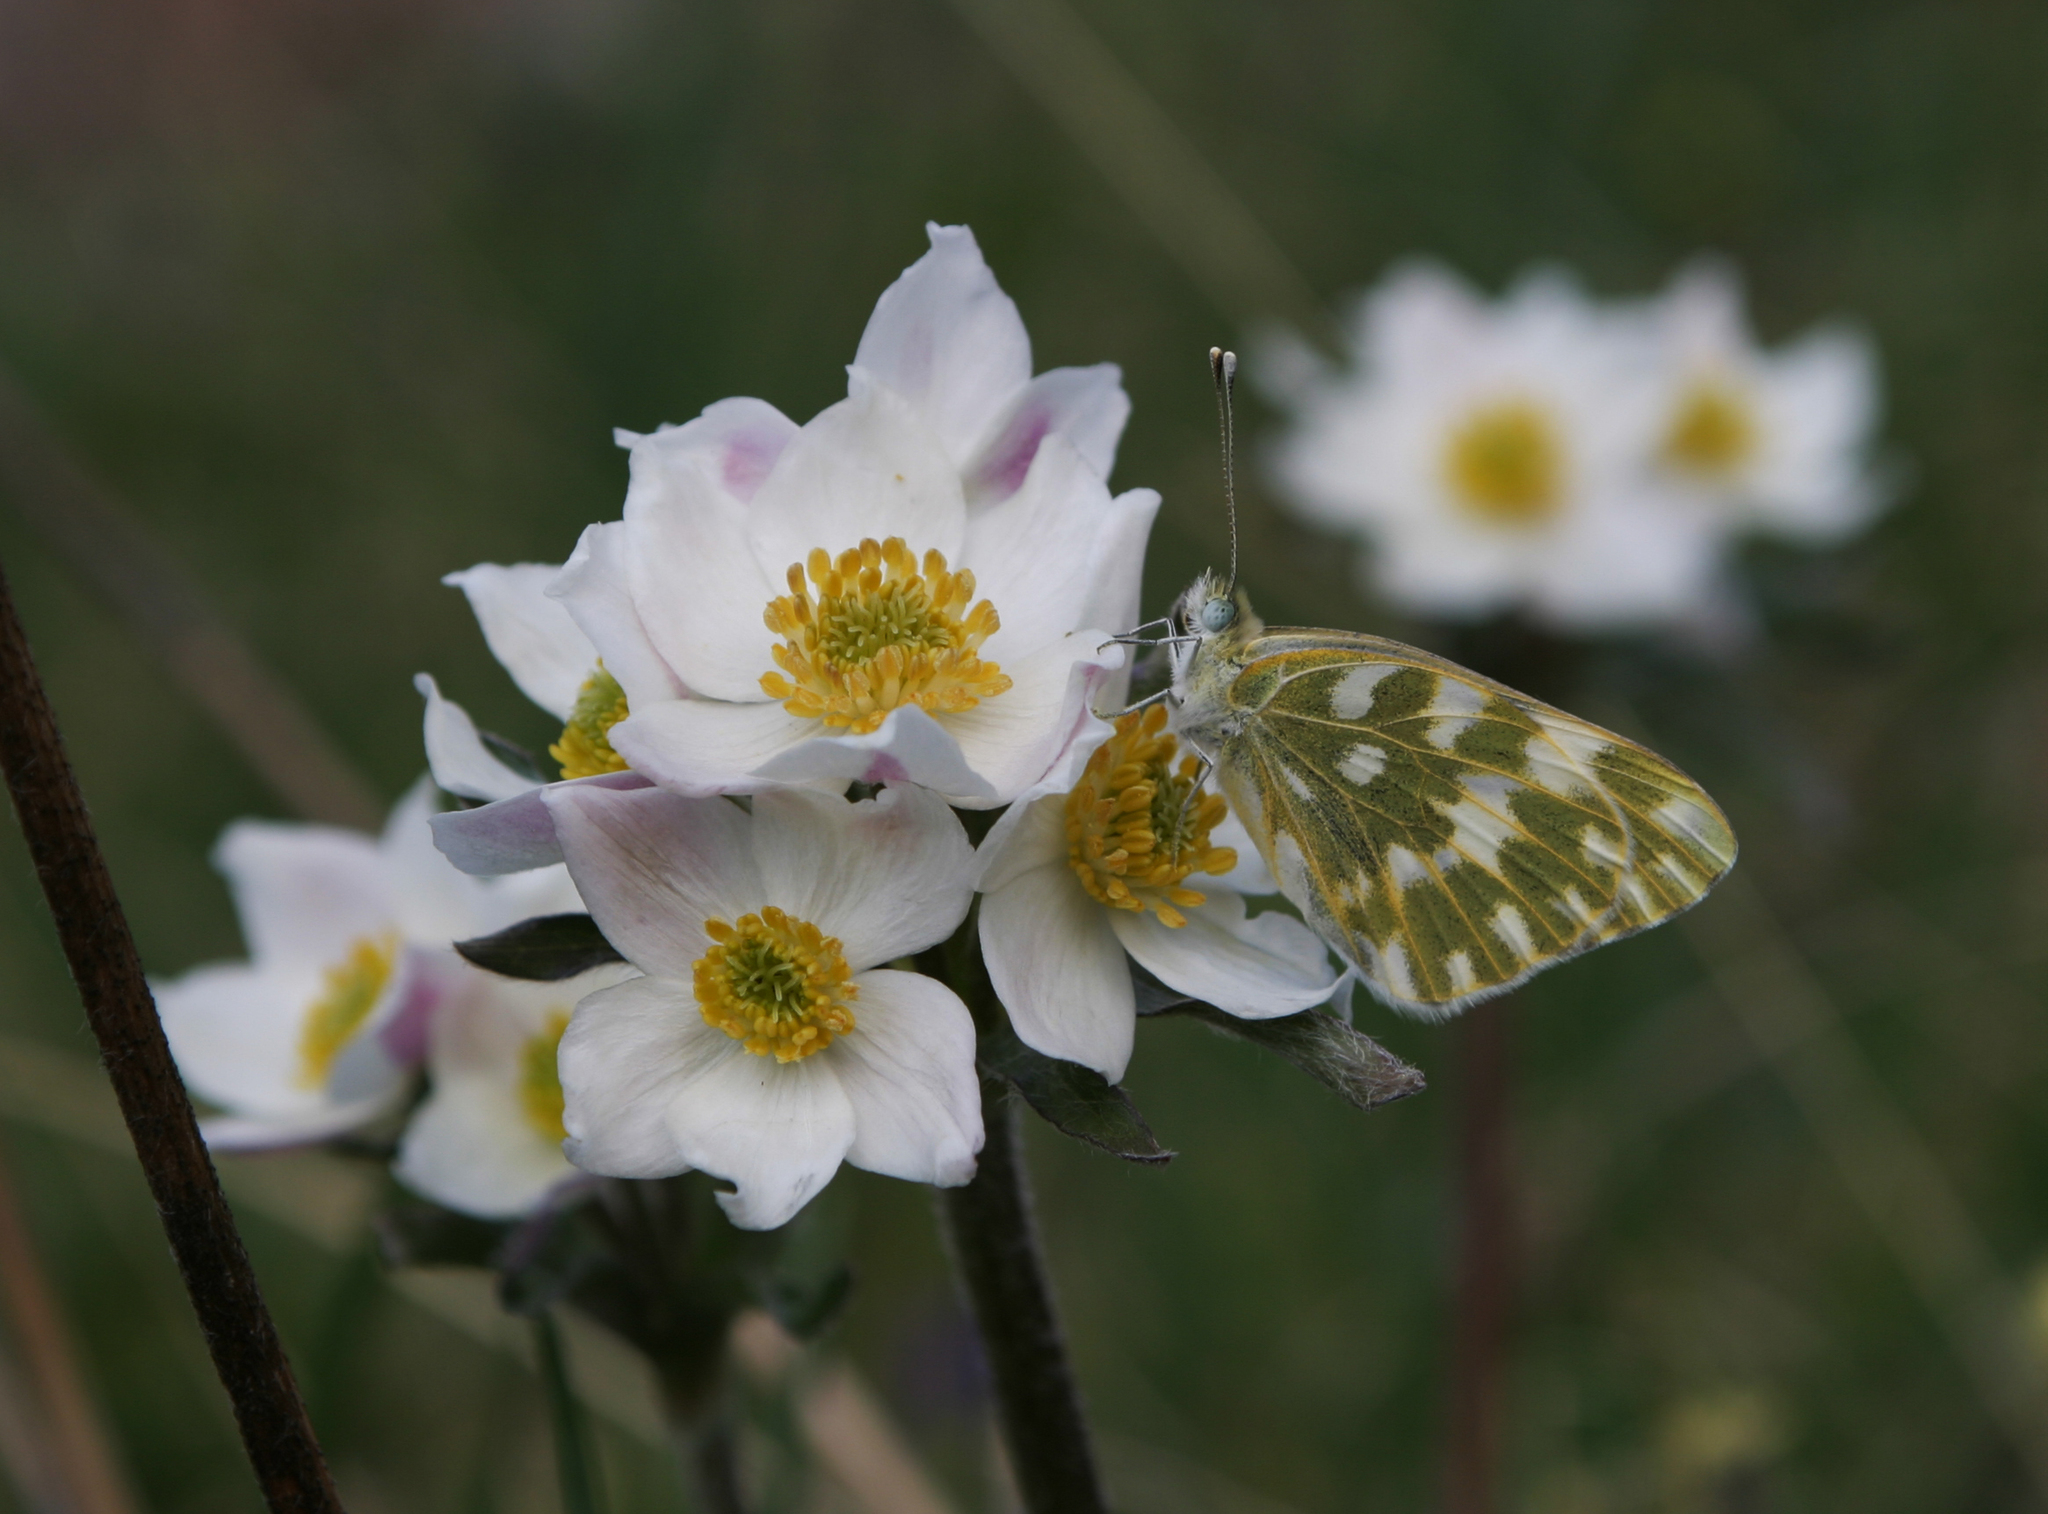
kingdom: Animalia
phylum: Arthropoda
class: Insecta
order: Lepidoptera
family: Pieridae
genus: Pontia
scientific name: Pontia edusa
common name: Eastern bath white
